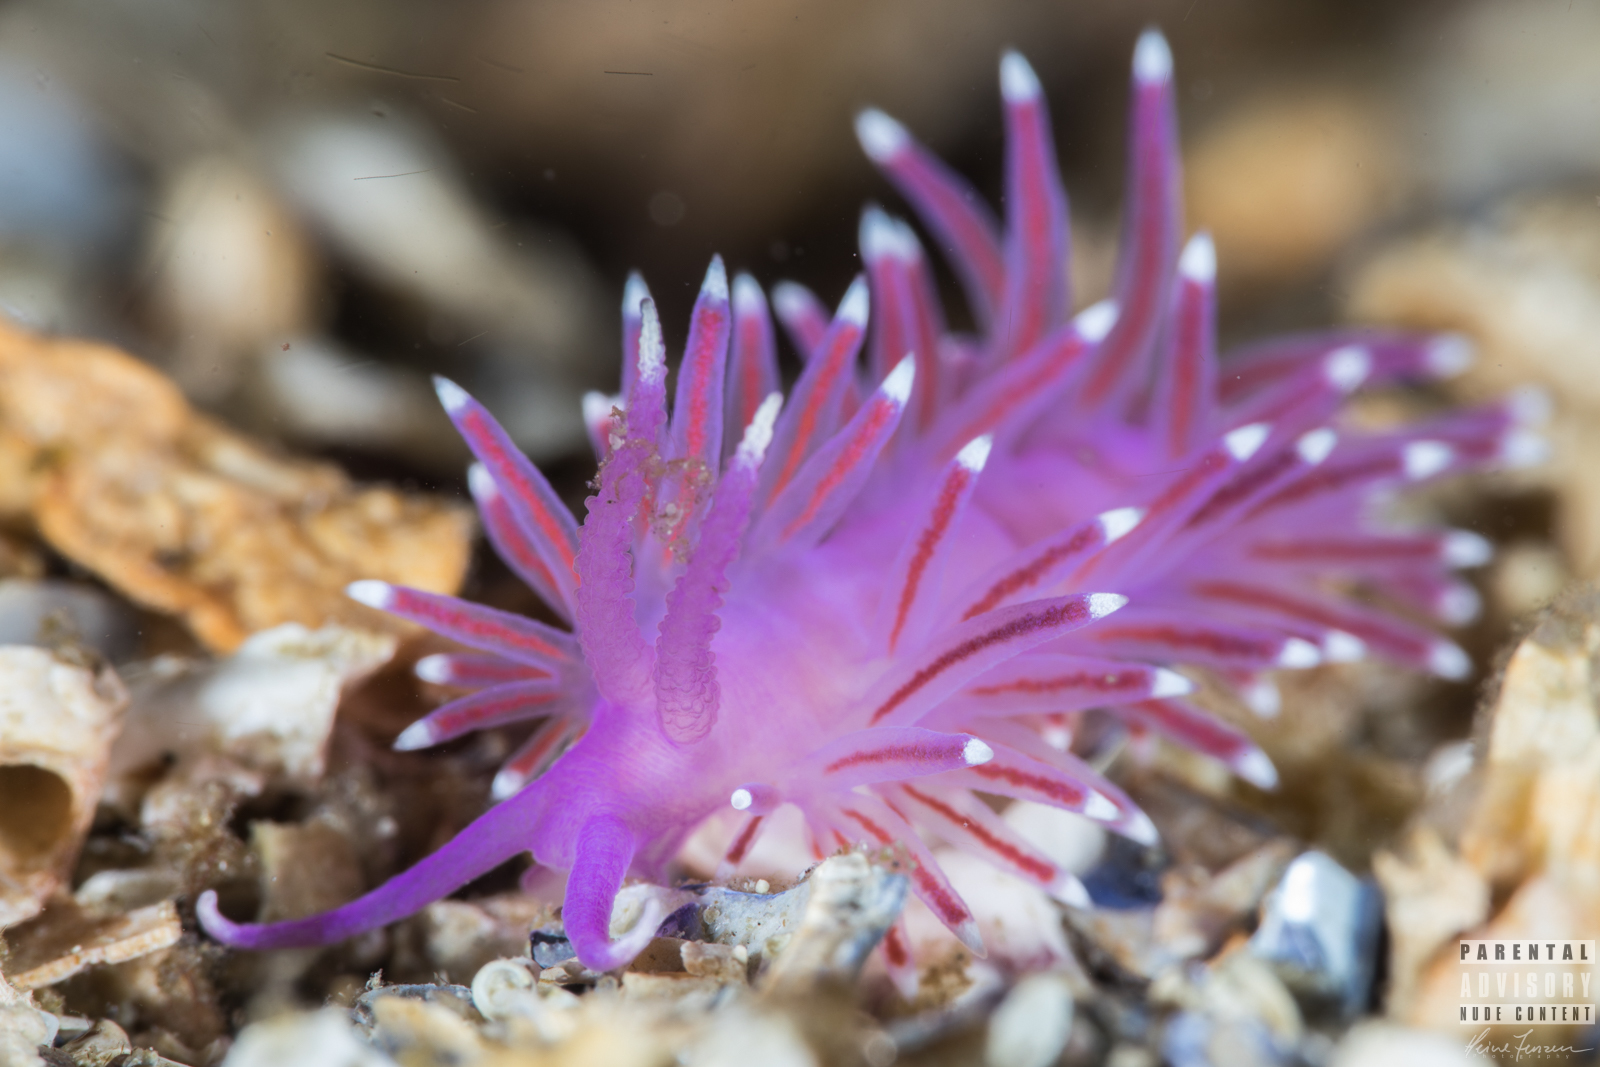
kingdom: Animalia
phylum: Mollusca
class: Gastropoda
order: Nudibranchia
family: Flabellinidae
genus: Edmundsella
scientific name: Edmundsella pedata
